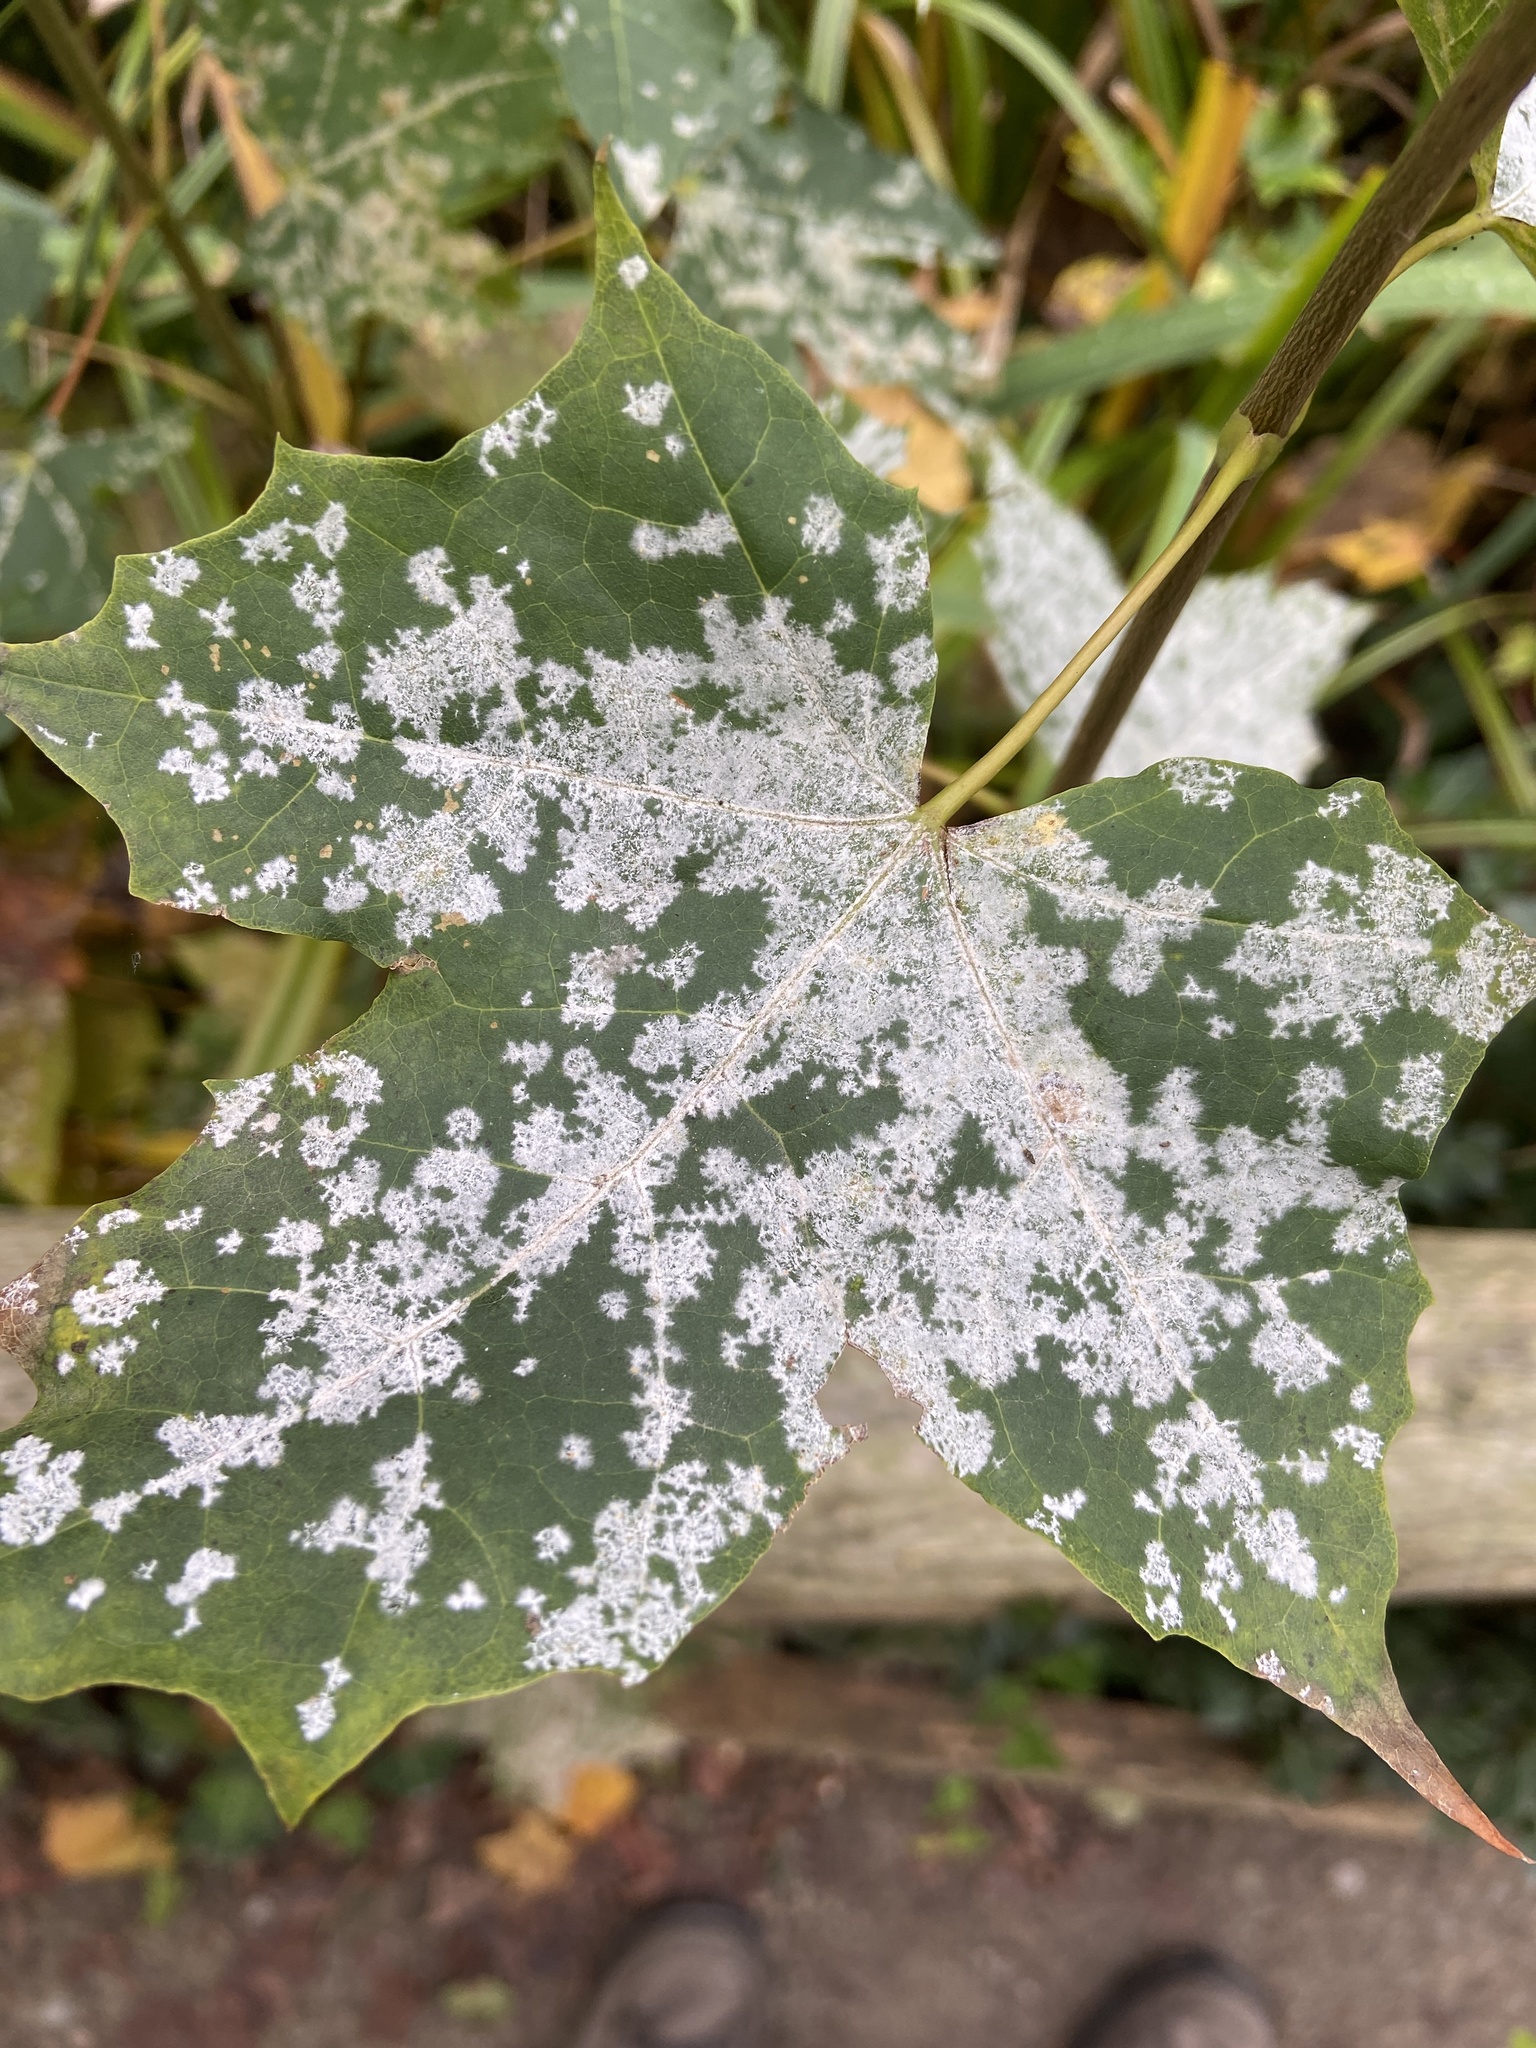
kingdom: Fungi
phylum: Ascomycota
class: Leotiomycetes
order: Helotiales
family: Erysiphaceae
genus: Sawadaea
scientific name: Sawadaea tulasnei
